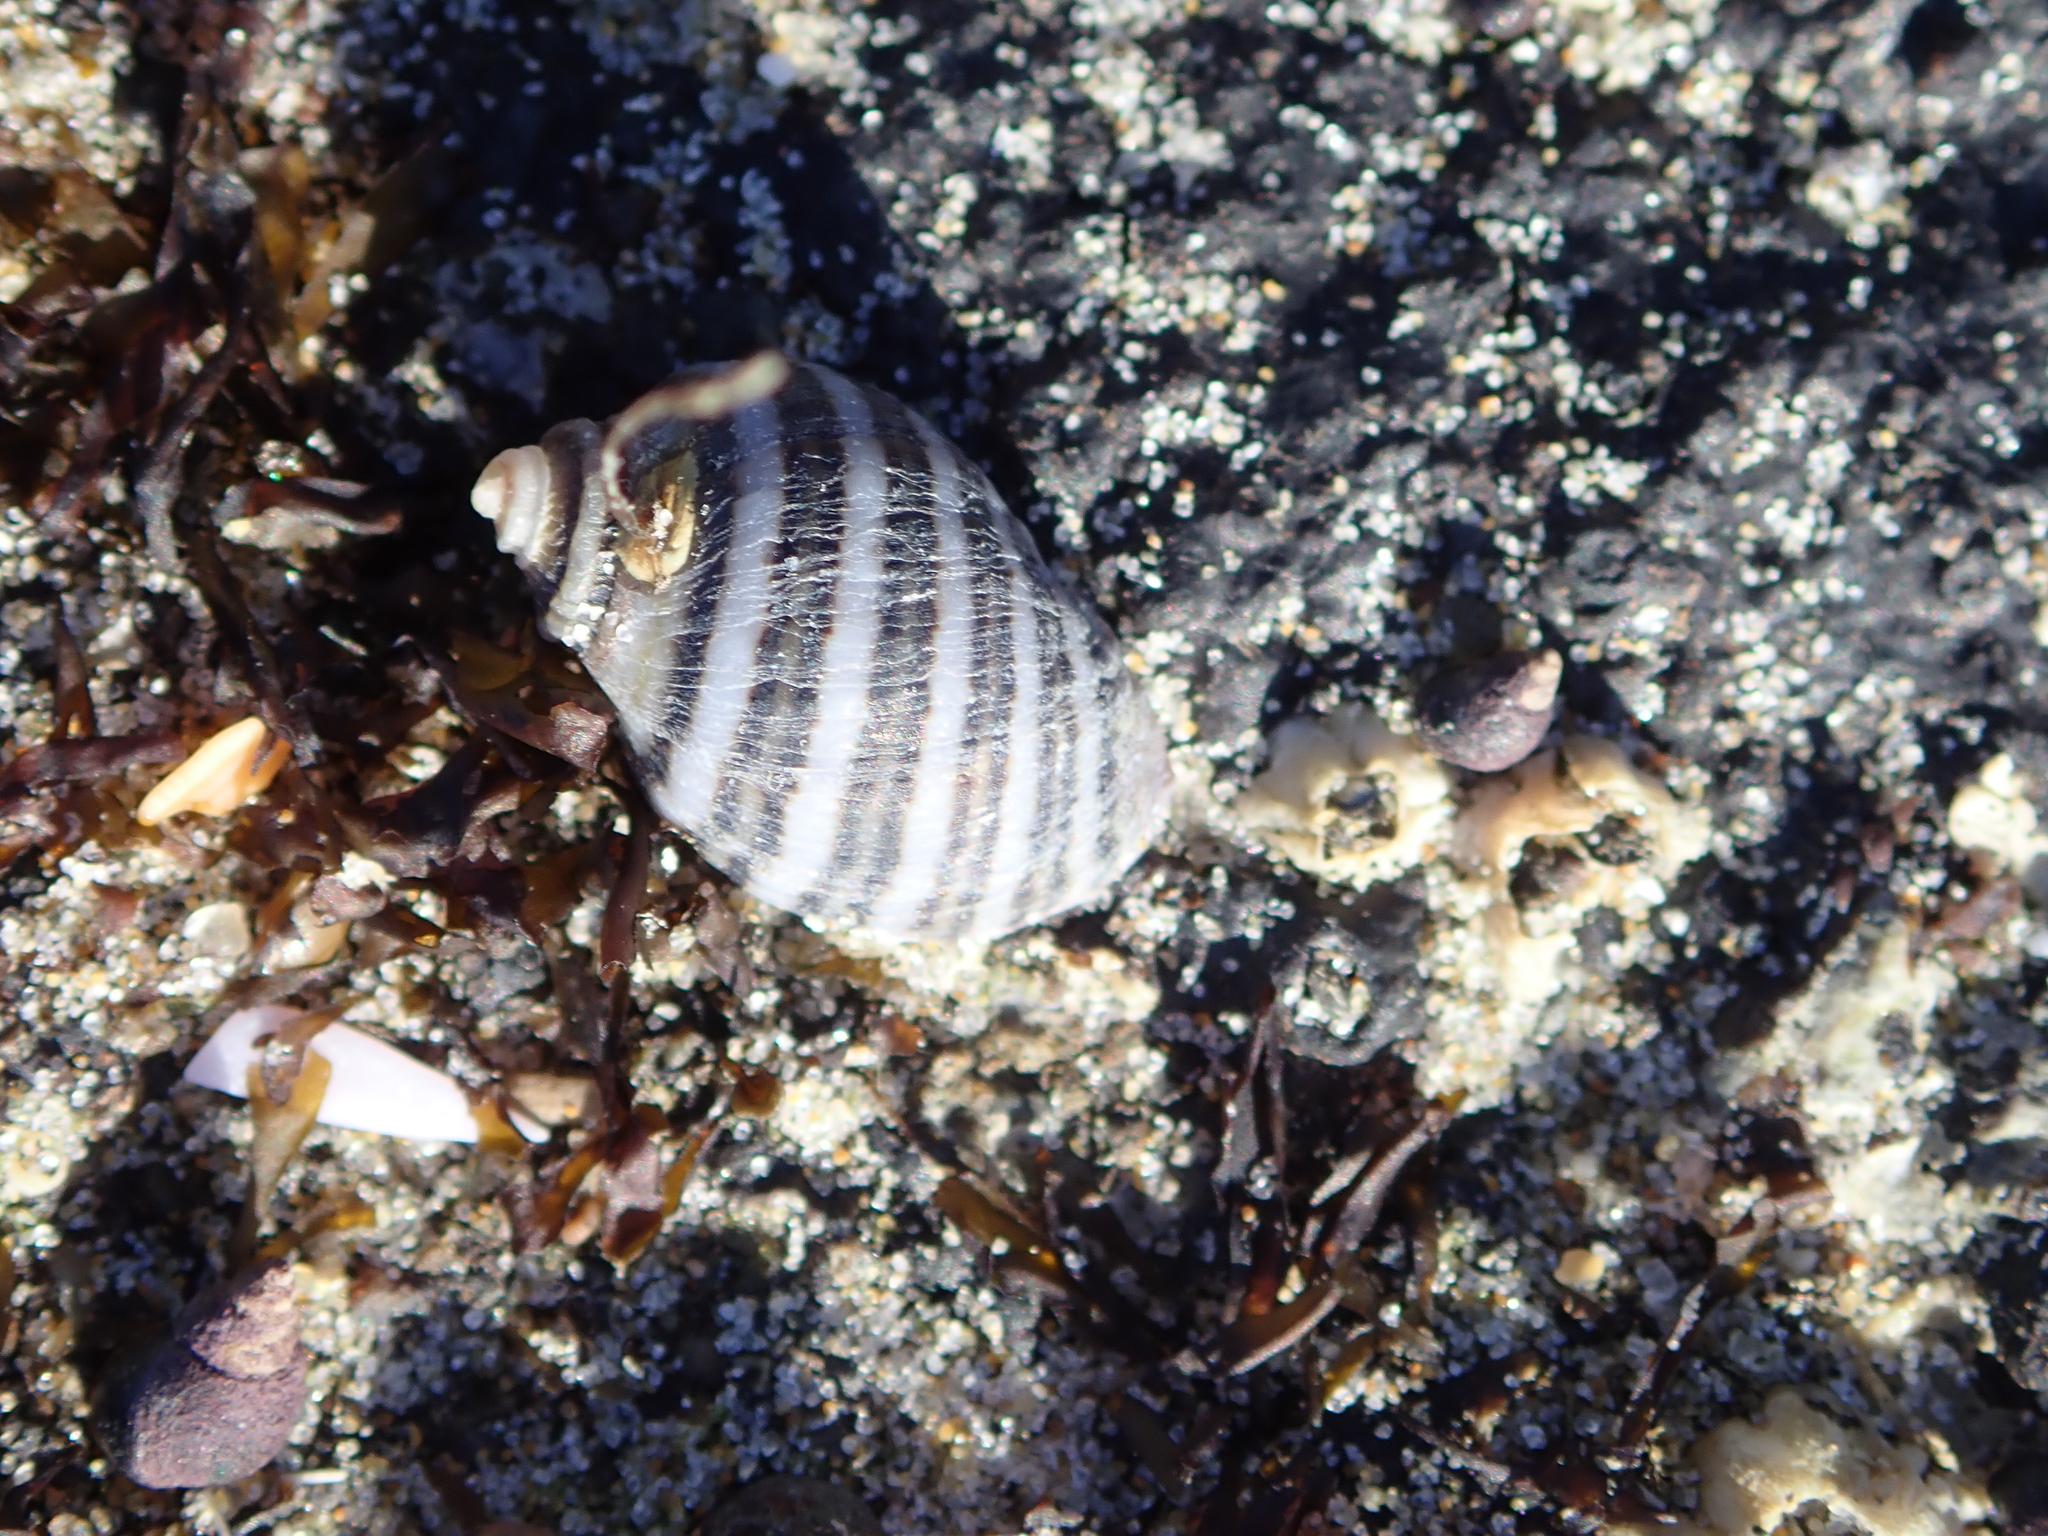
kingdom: Animalia
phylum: Mollusca
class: Gastropoda
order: Neogastropoda
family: Muricidae
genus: Nucella
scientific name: Nucella ostrina
